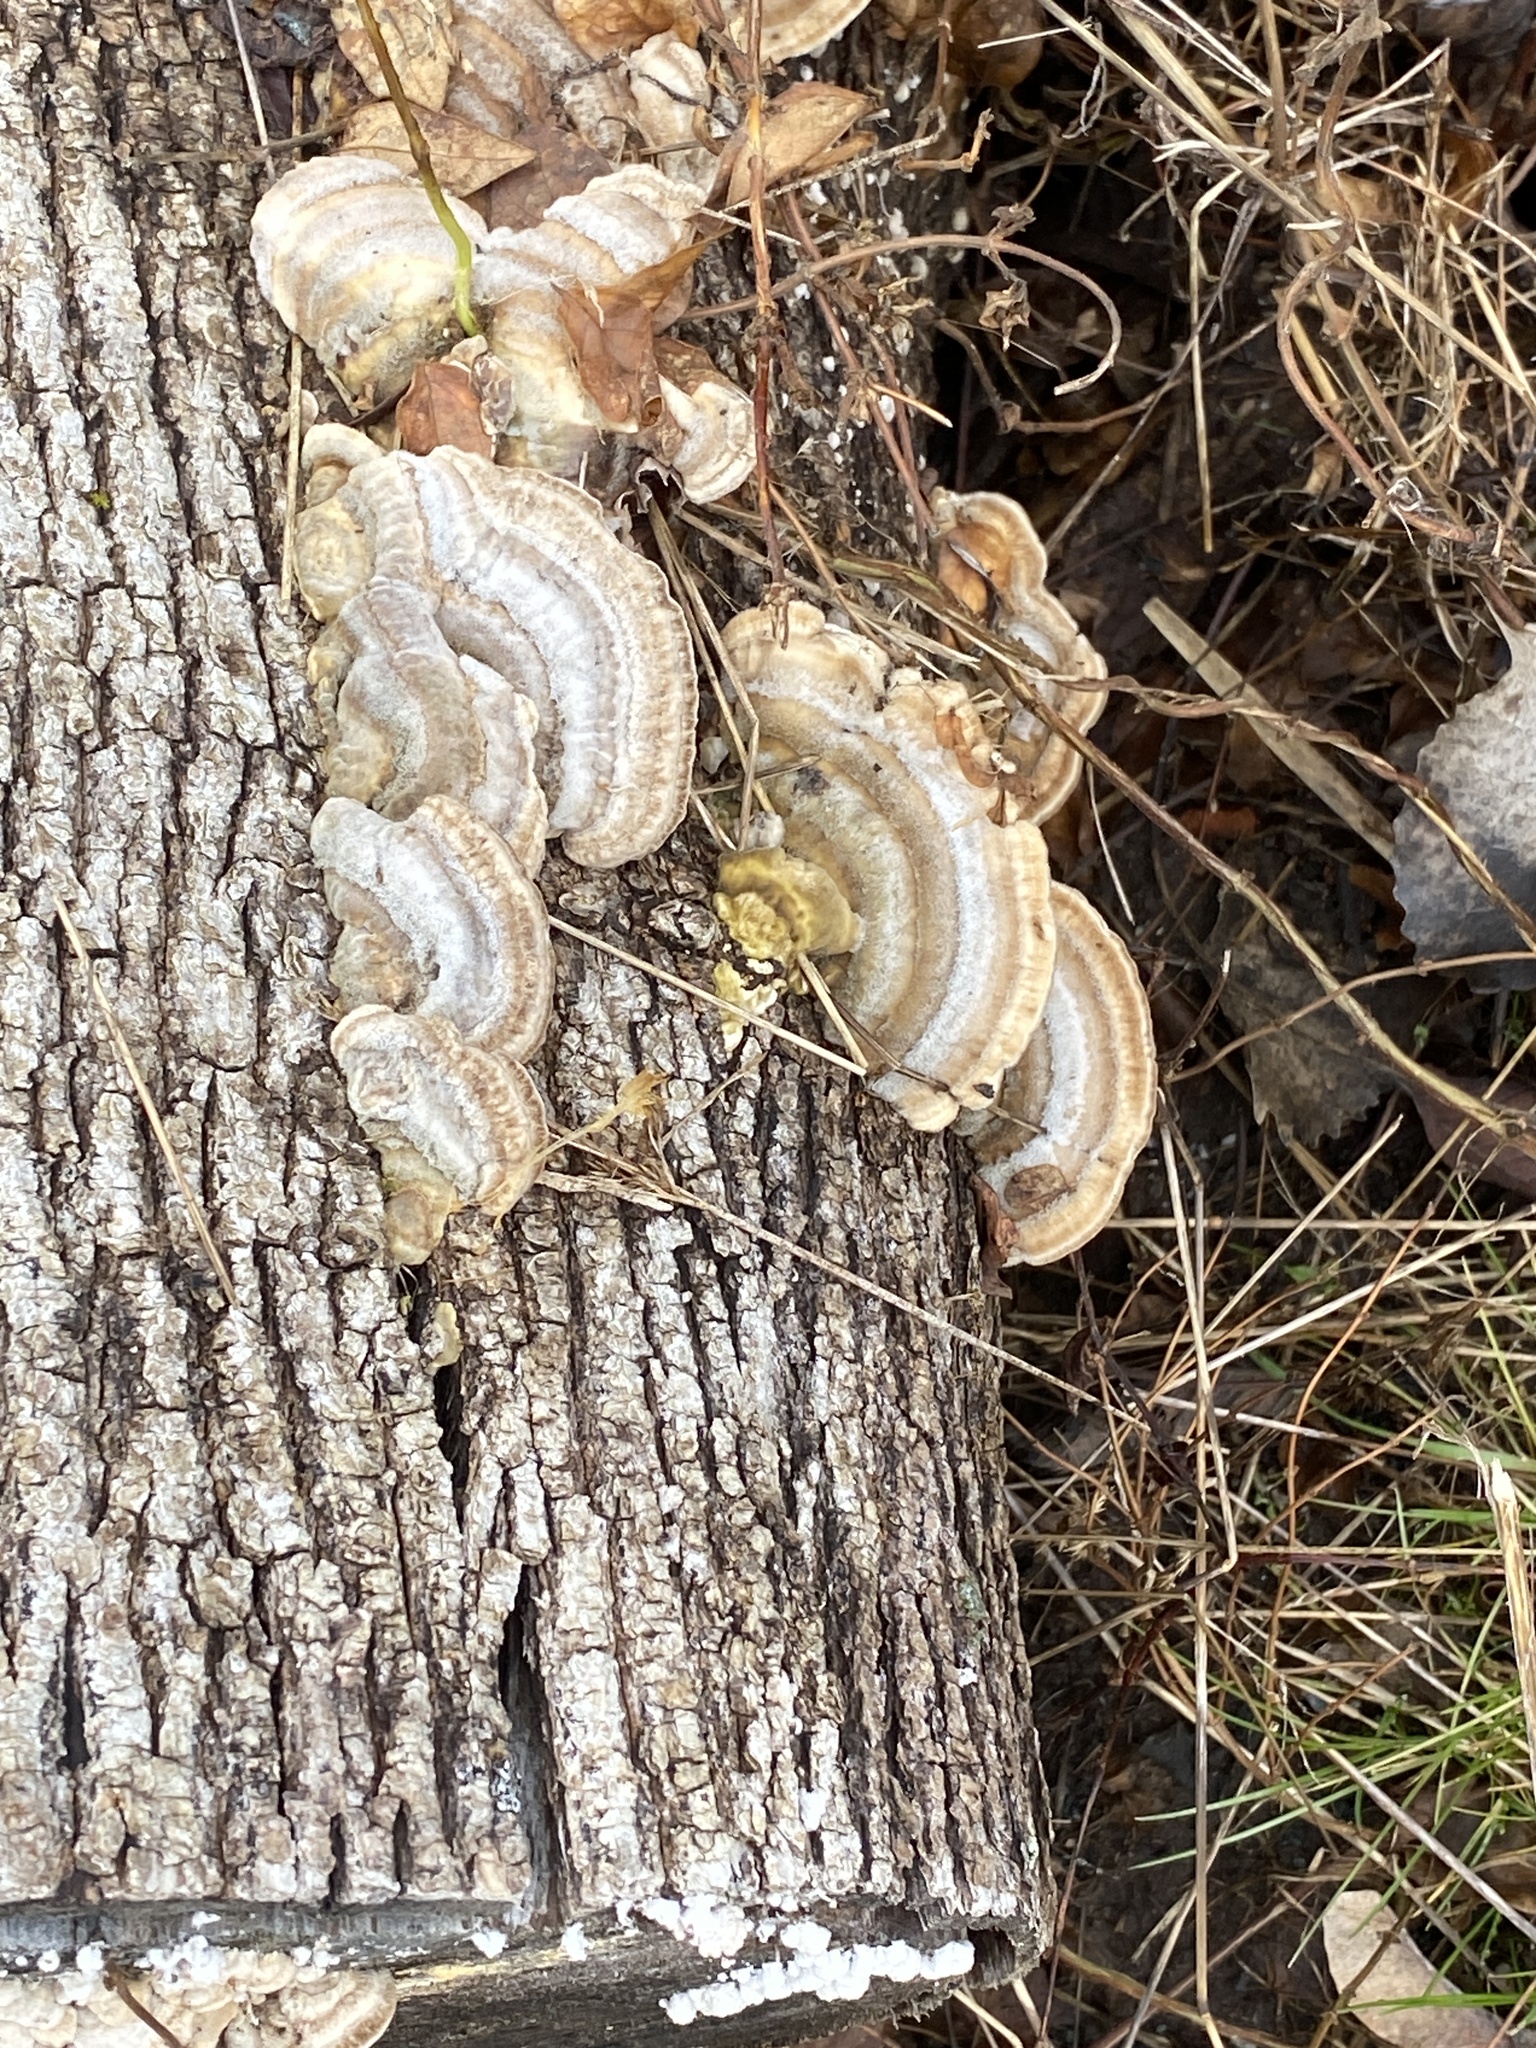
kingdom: Fungi
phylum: Basidiomycota
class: Agaricomycetes
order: Polyporales
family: Polyporaceae
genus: Trametes
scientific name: Trametes hirsuta
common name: Hairy bracket
